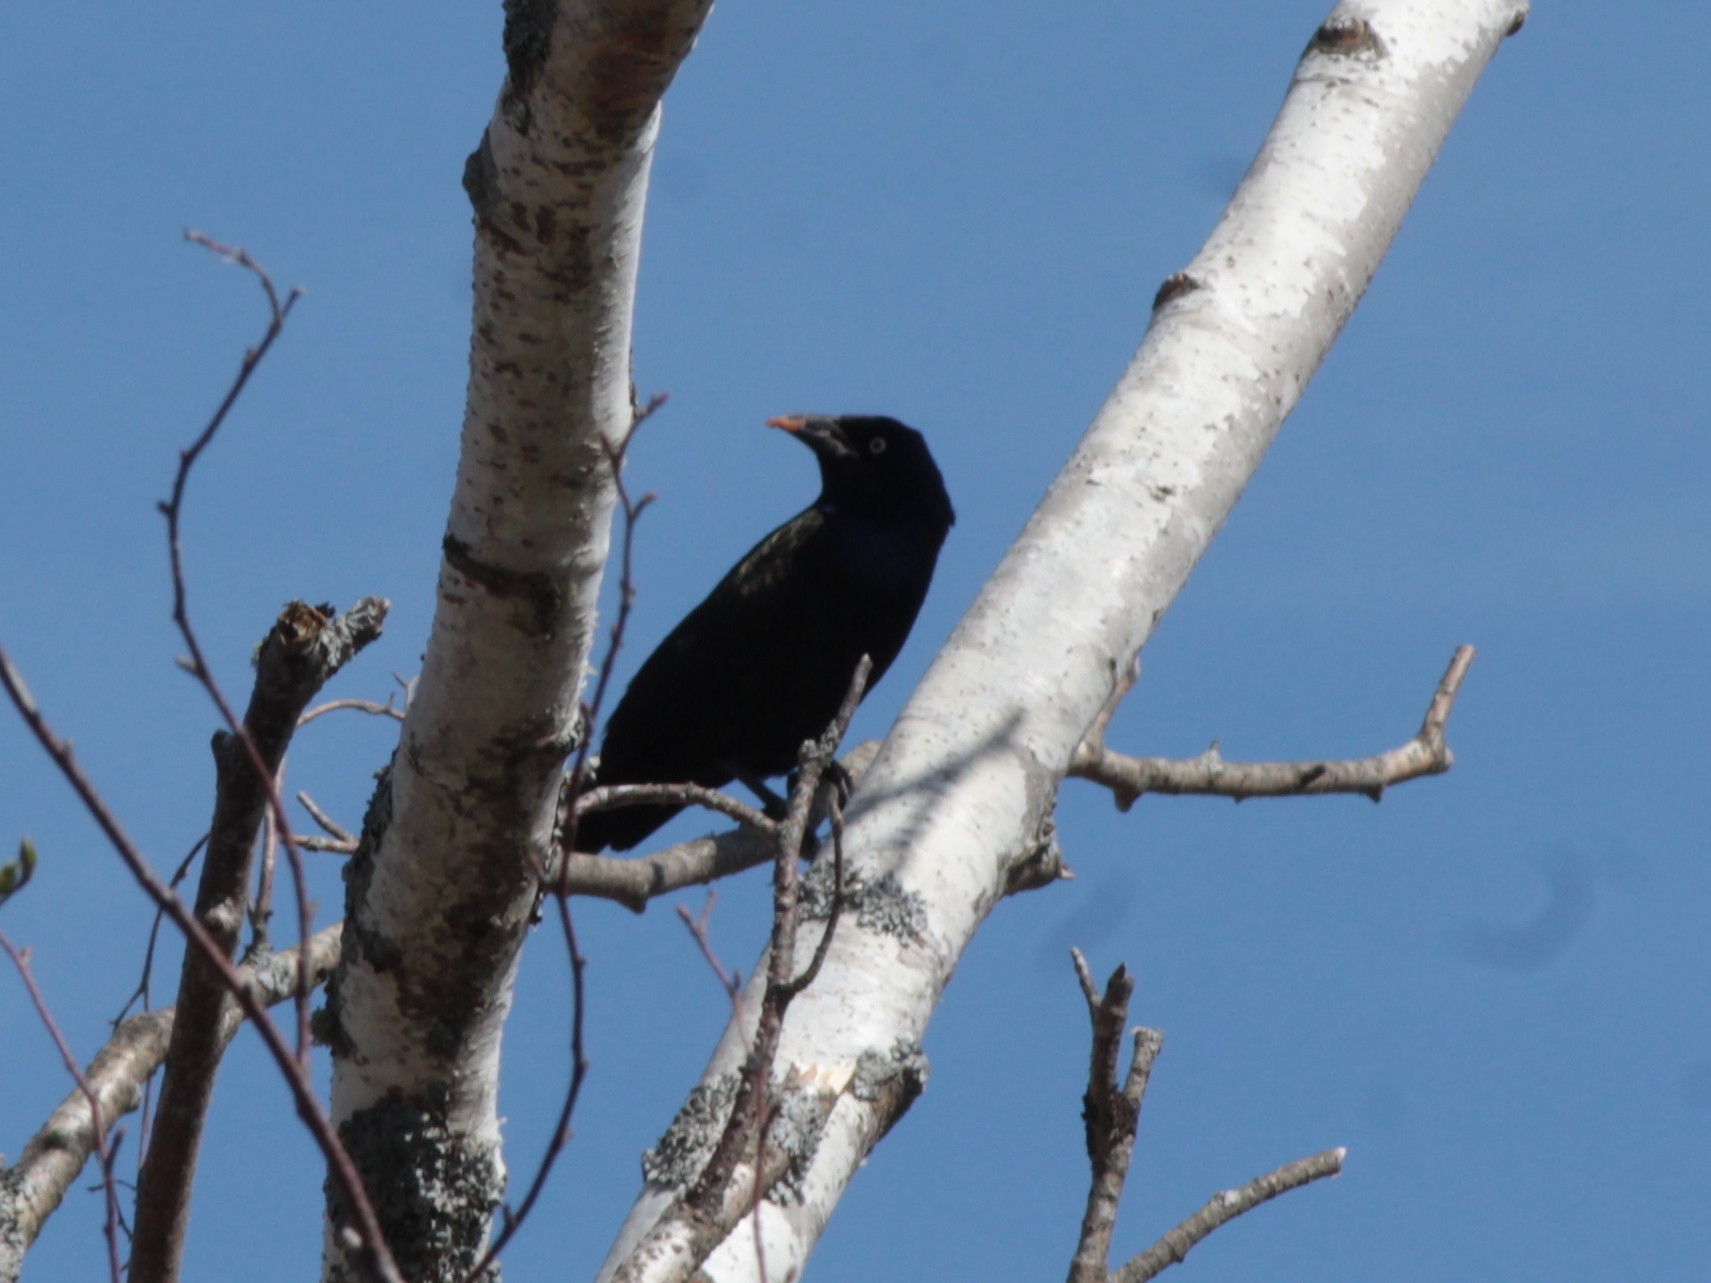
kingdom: Animalia
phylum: Chordata
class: Aves
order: Passeriformes
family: Icteridae
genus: Quiscalus
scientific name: Quiscalus quiscula
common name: Common grackle
